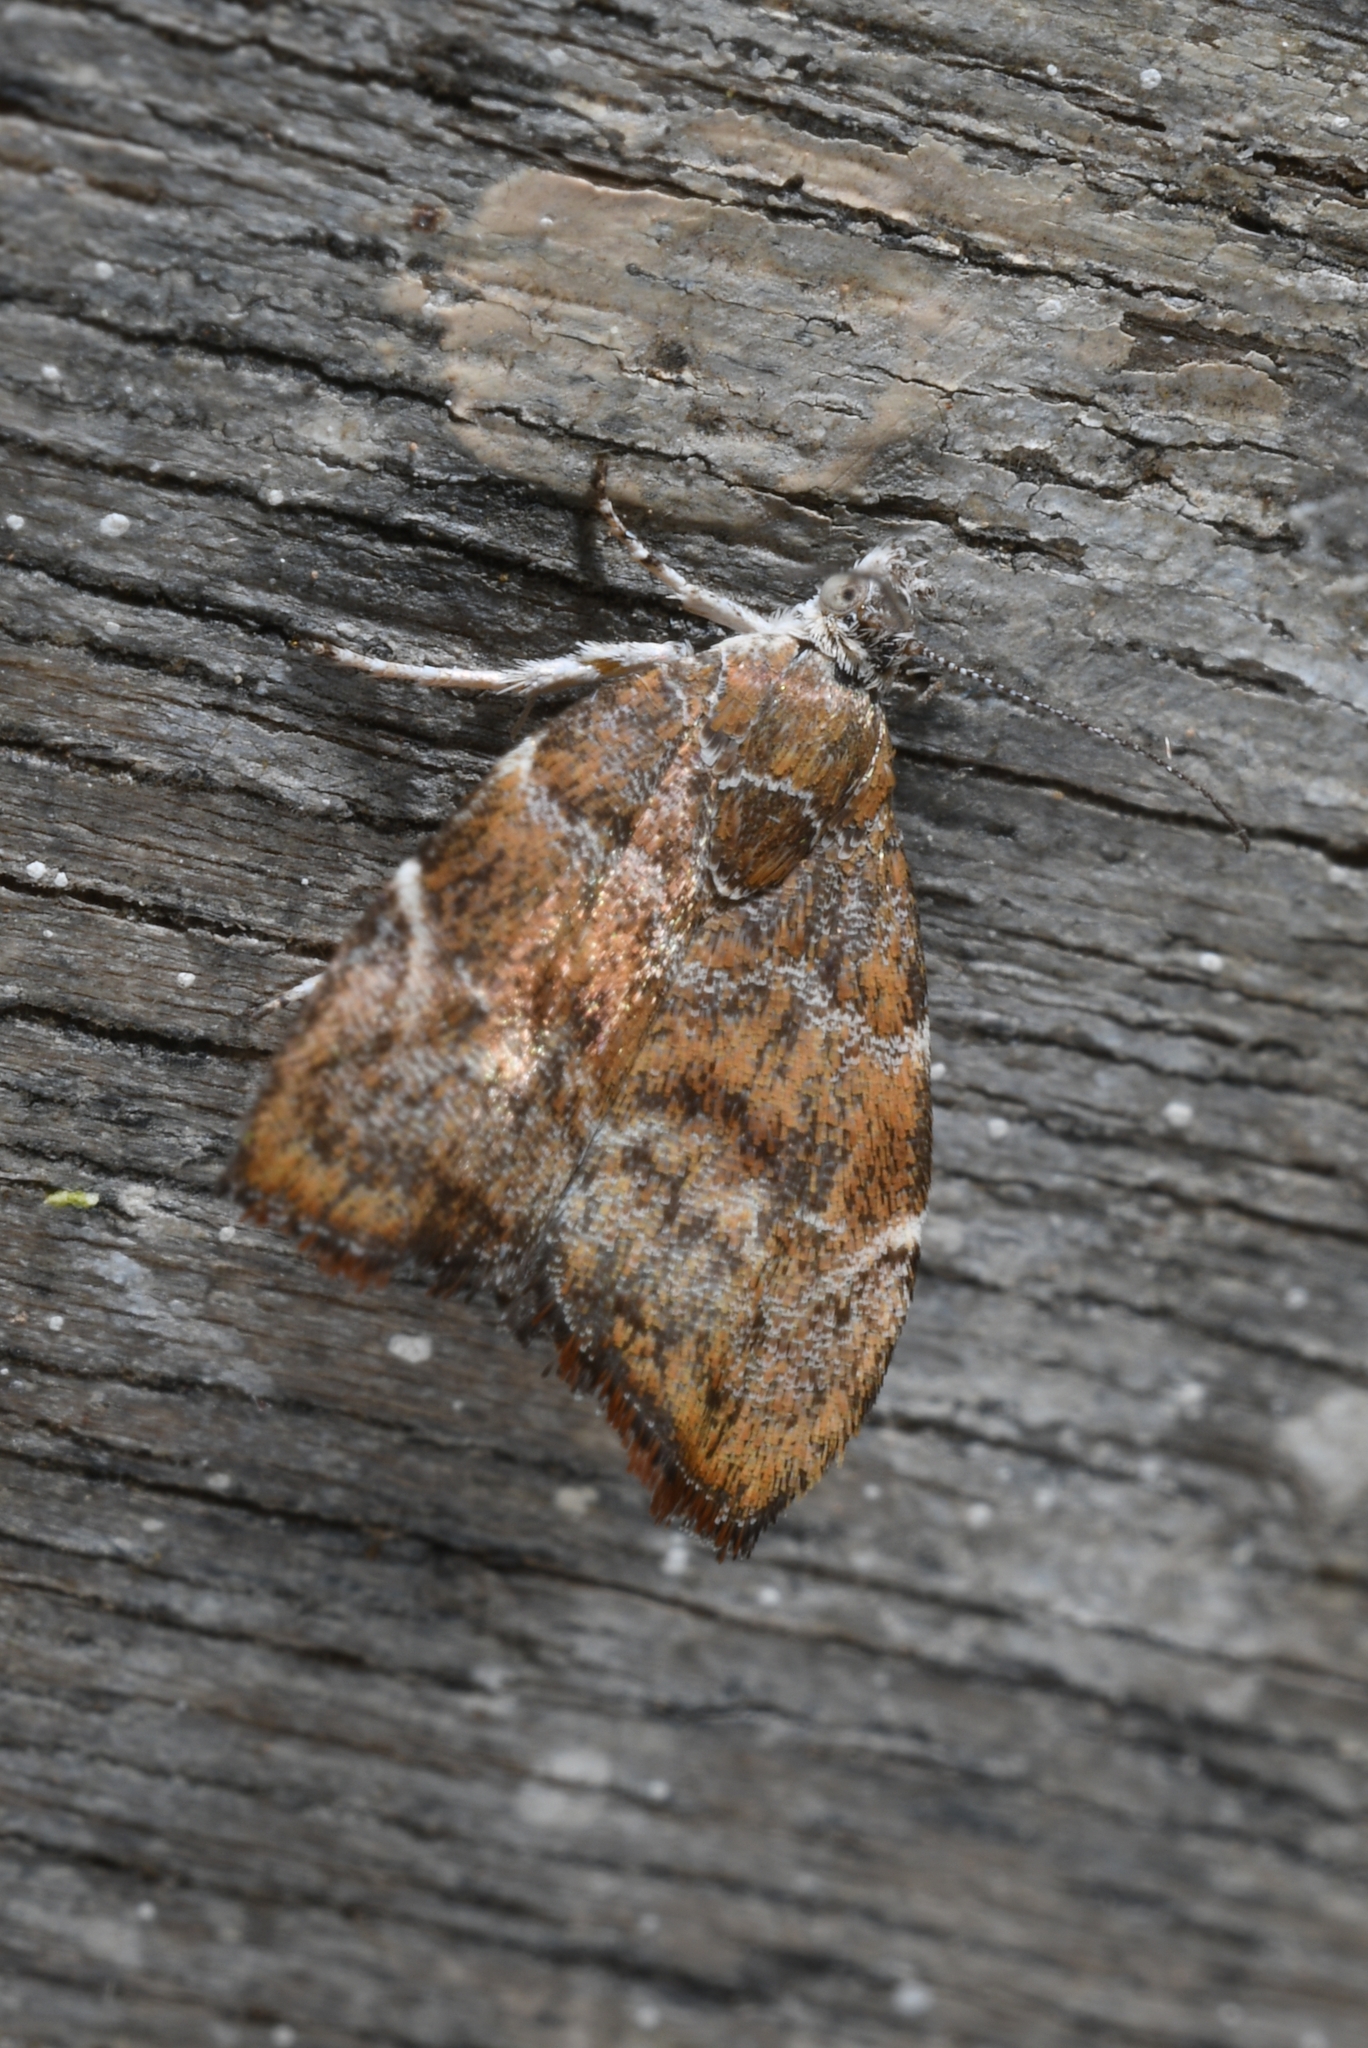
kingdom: Animalia
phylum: Arthropoda
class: Insecta
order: Lepidoptera
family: Choreutidae
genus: Anthophila
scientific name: Anthophila nemorana
